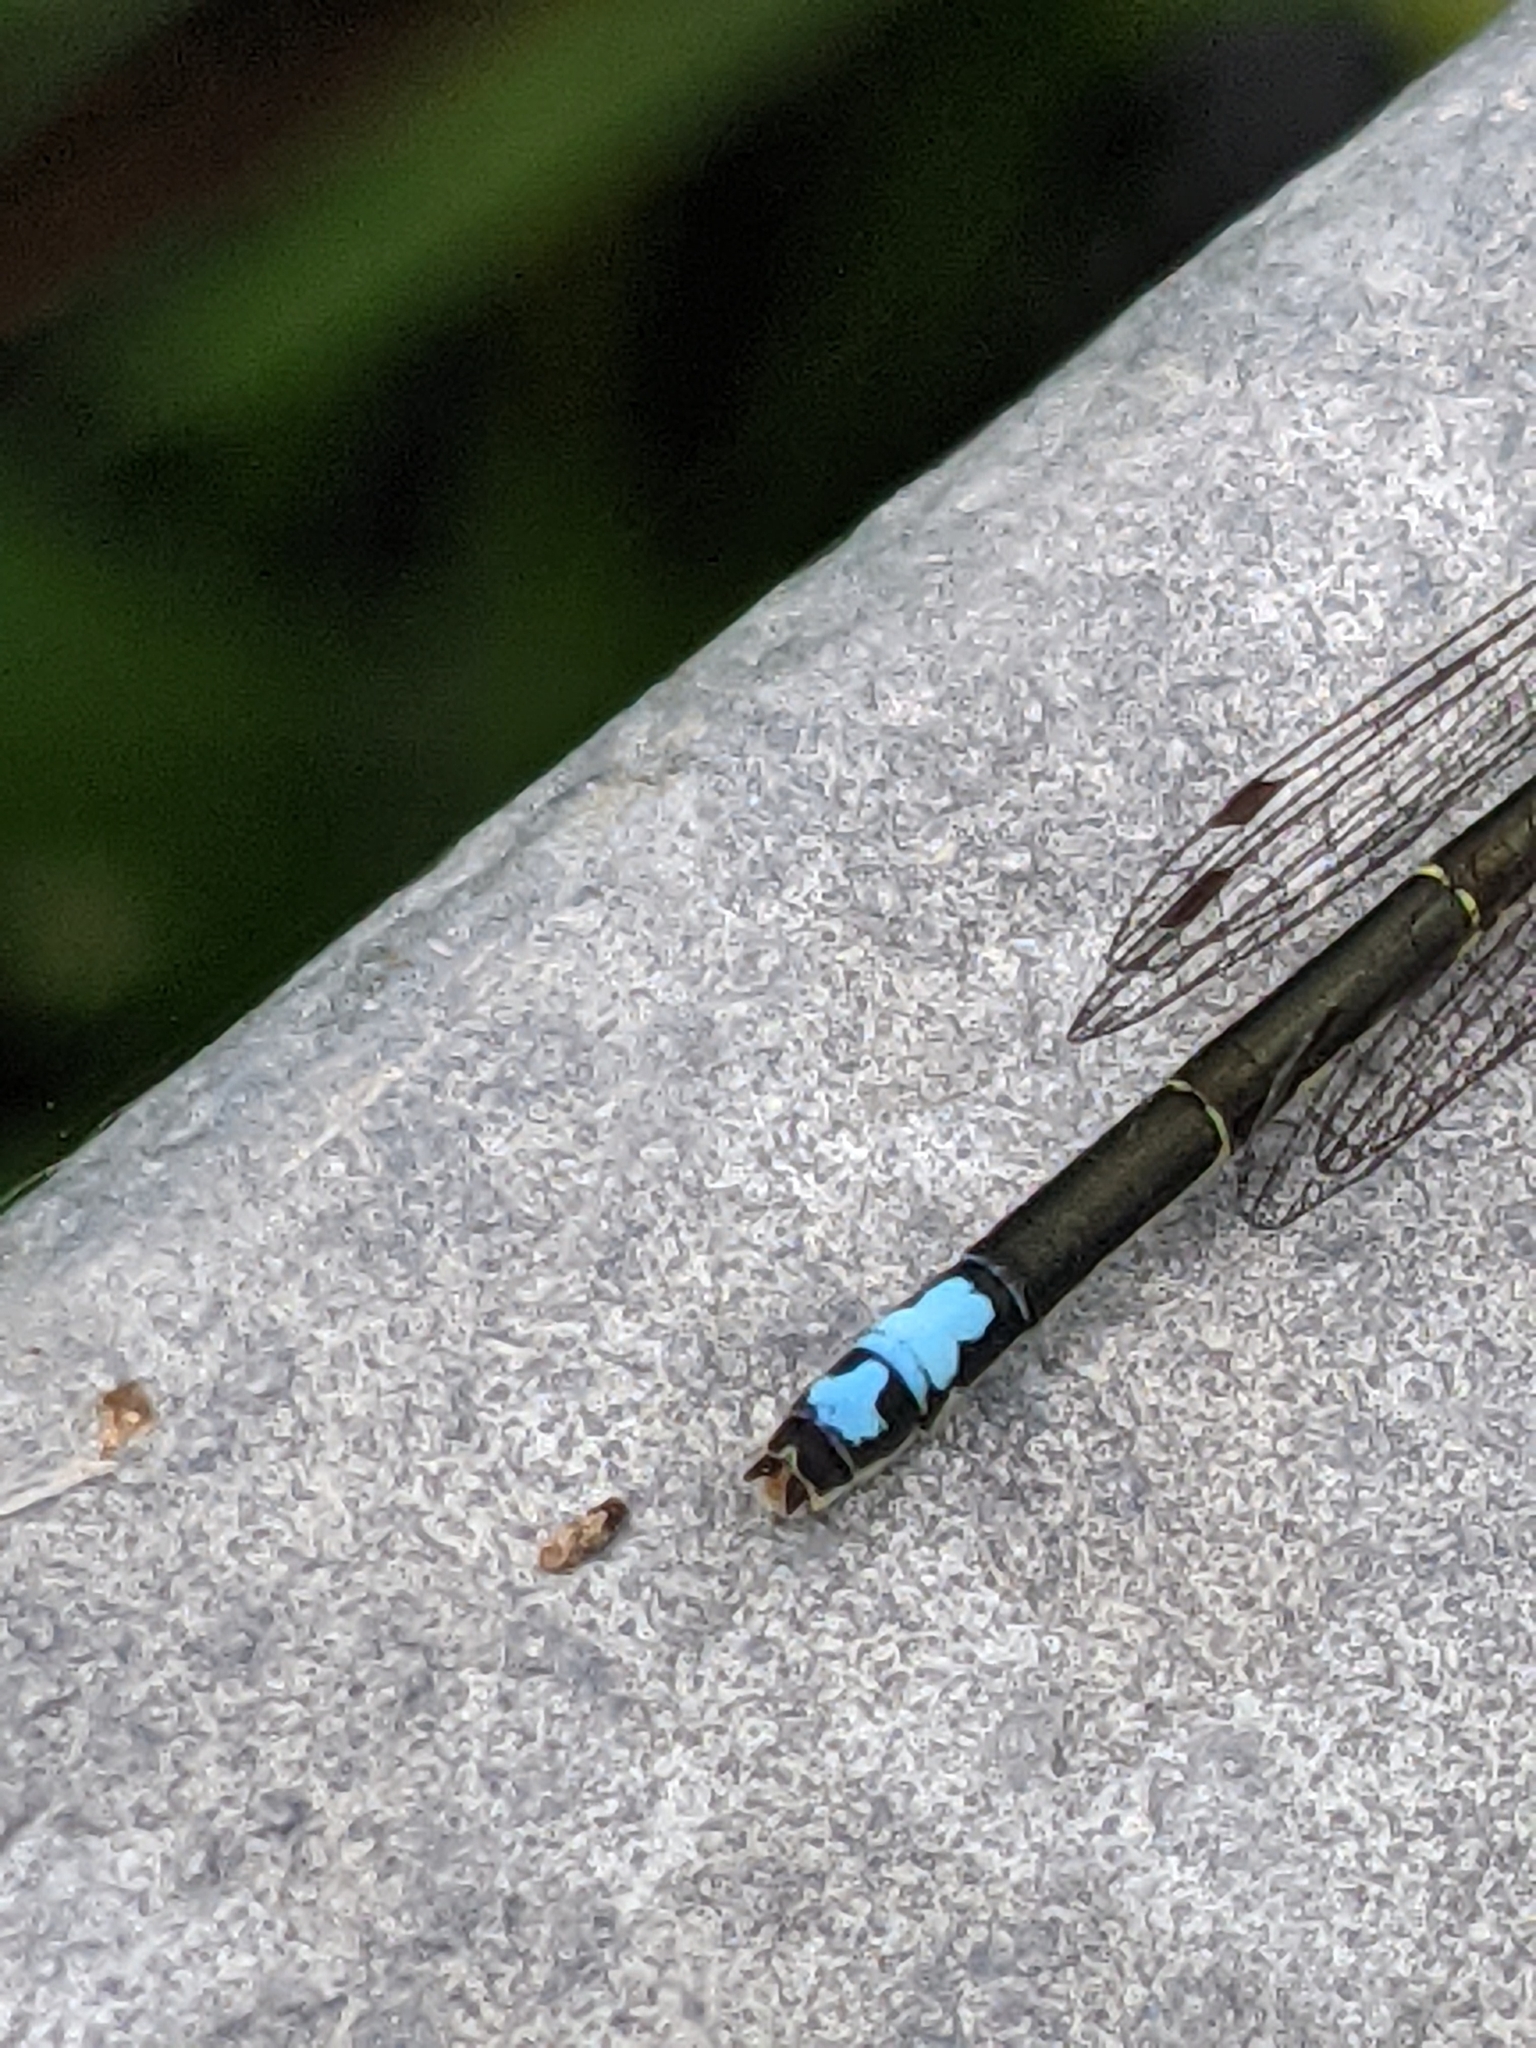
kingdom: Animalia
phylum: Arthropoda
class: Insecta
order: Odonata
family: Coenagrionidae
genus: Ischnura
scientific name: Ischnura verticalis
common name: Eastern forktail
